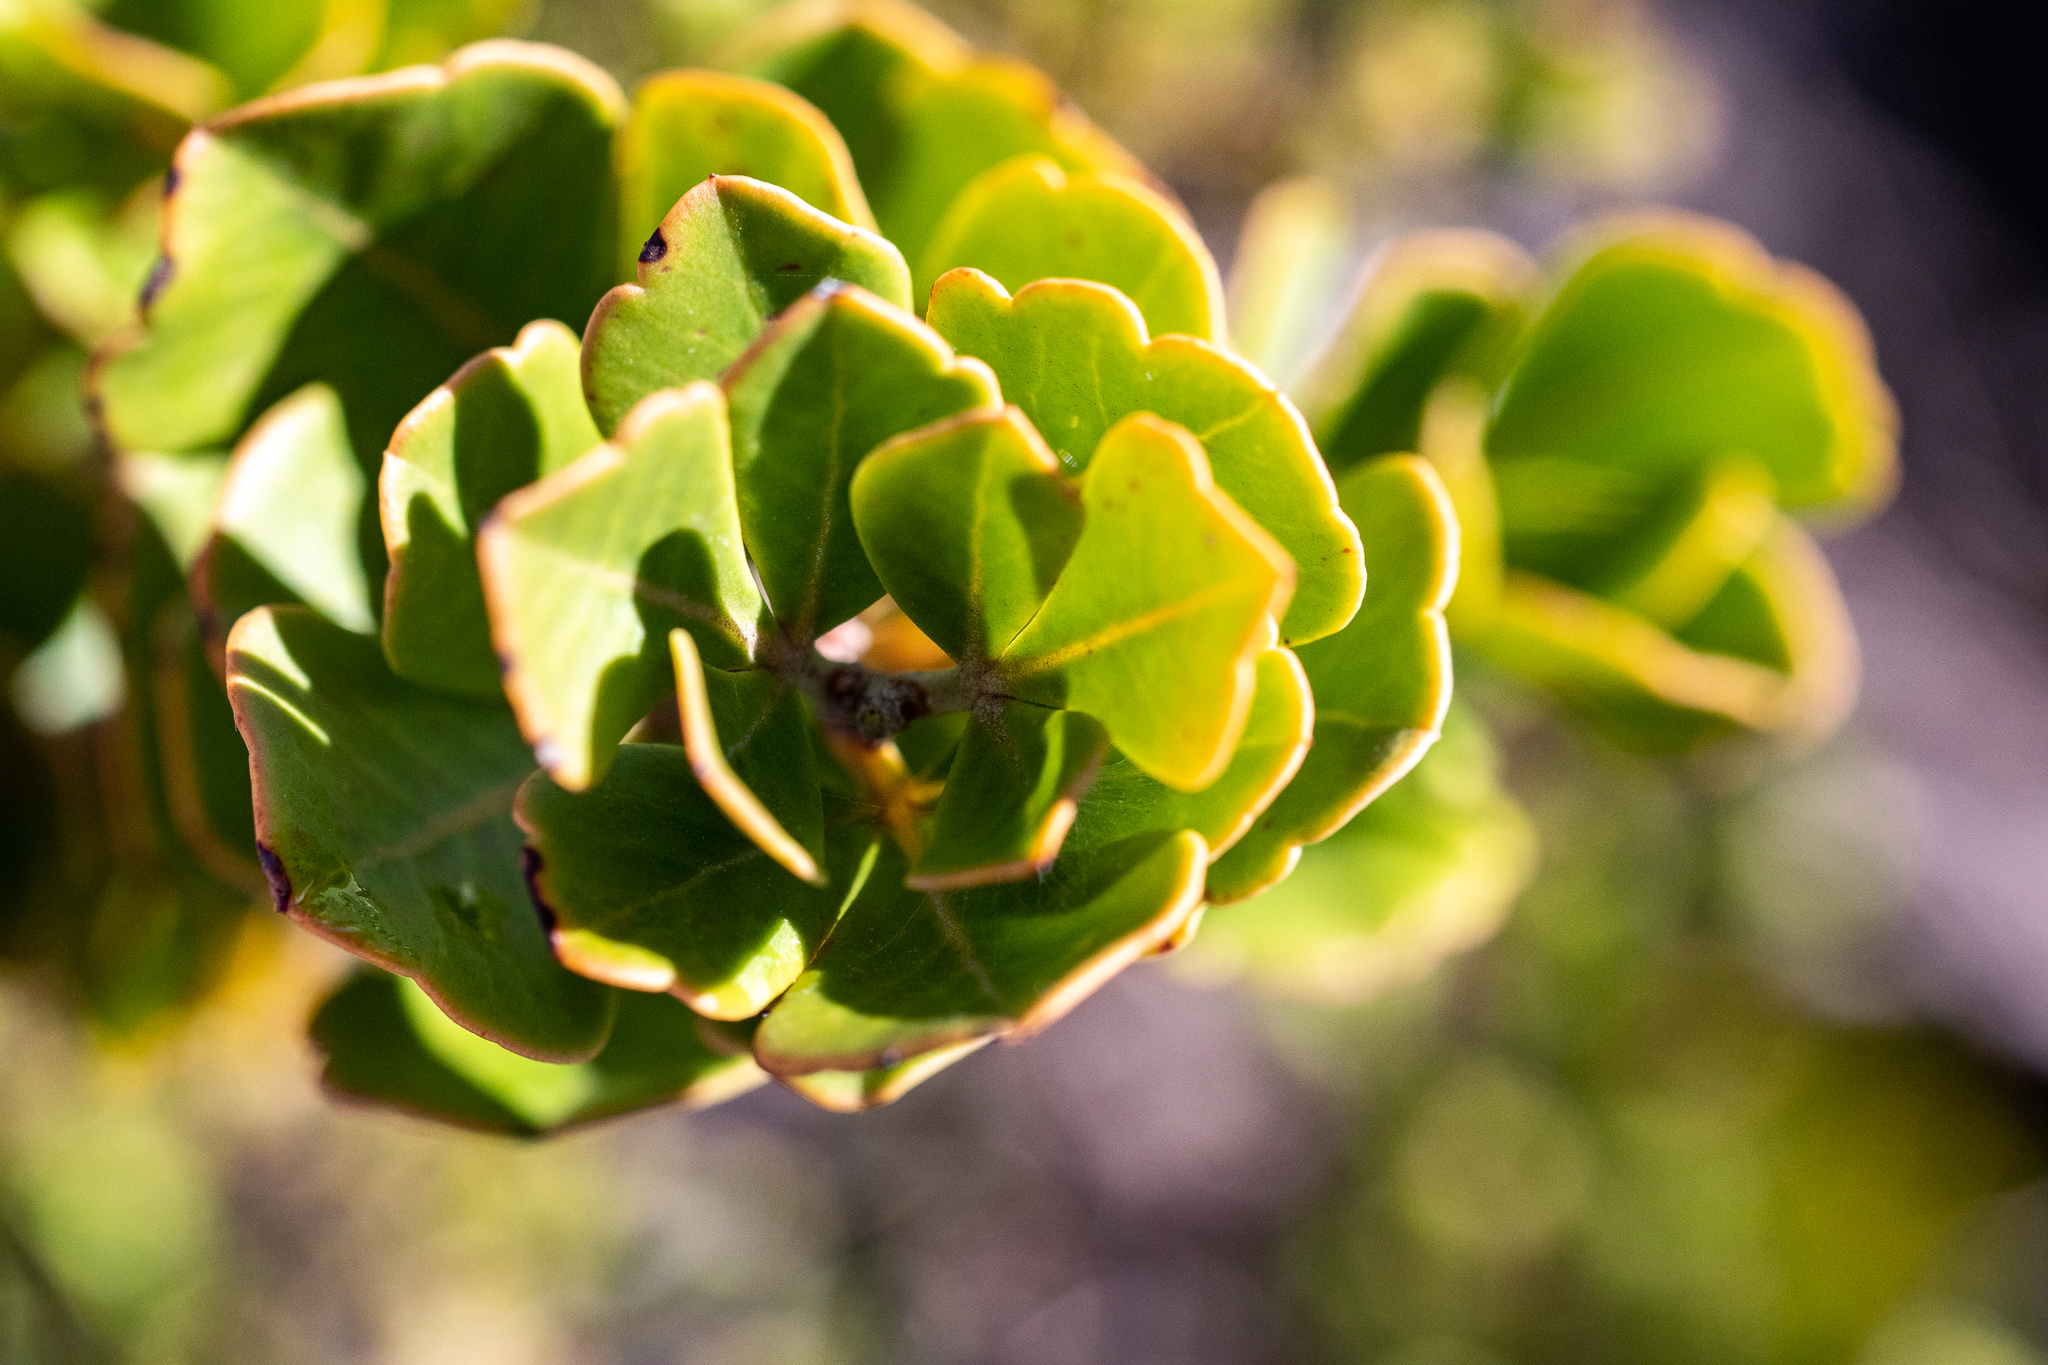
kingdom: Plantae
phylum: Tracheophyta
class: Magnoliopsida
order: Sapindales
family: Anacardiaceae
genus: Searsia
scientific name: Searsia lucida
